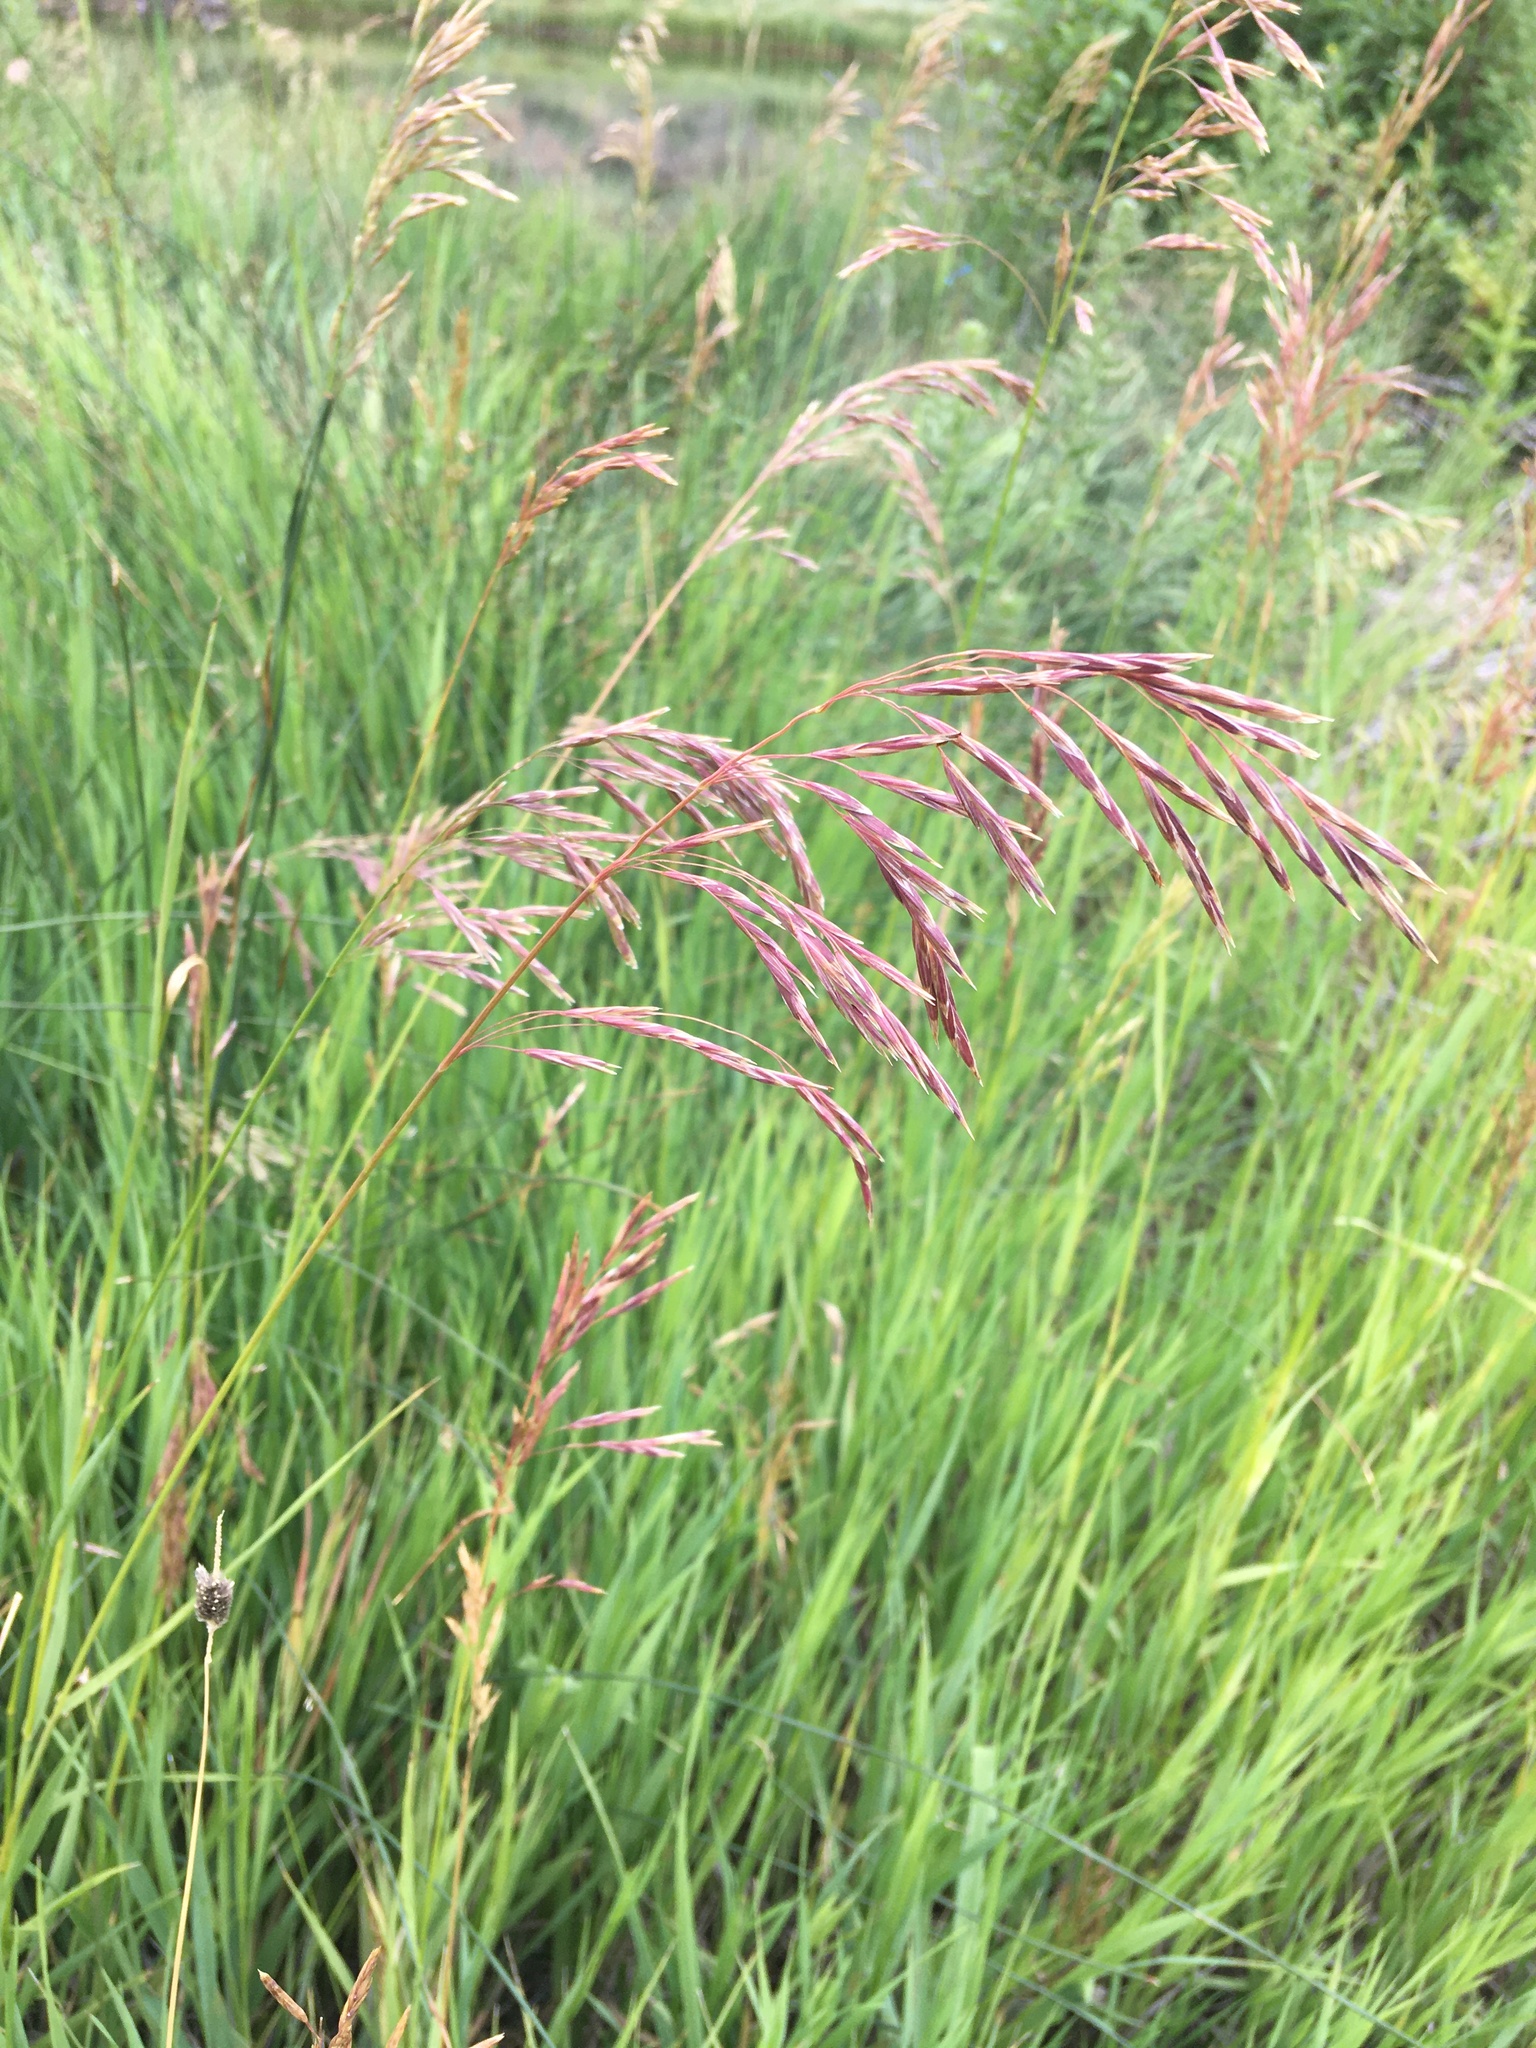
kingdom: Plantae
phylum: Tracheophyta
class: Liliopsida
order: Poales
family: Poaceae
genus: Bromus
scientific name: Bromus inermis
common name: Smooth brome
